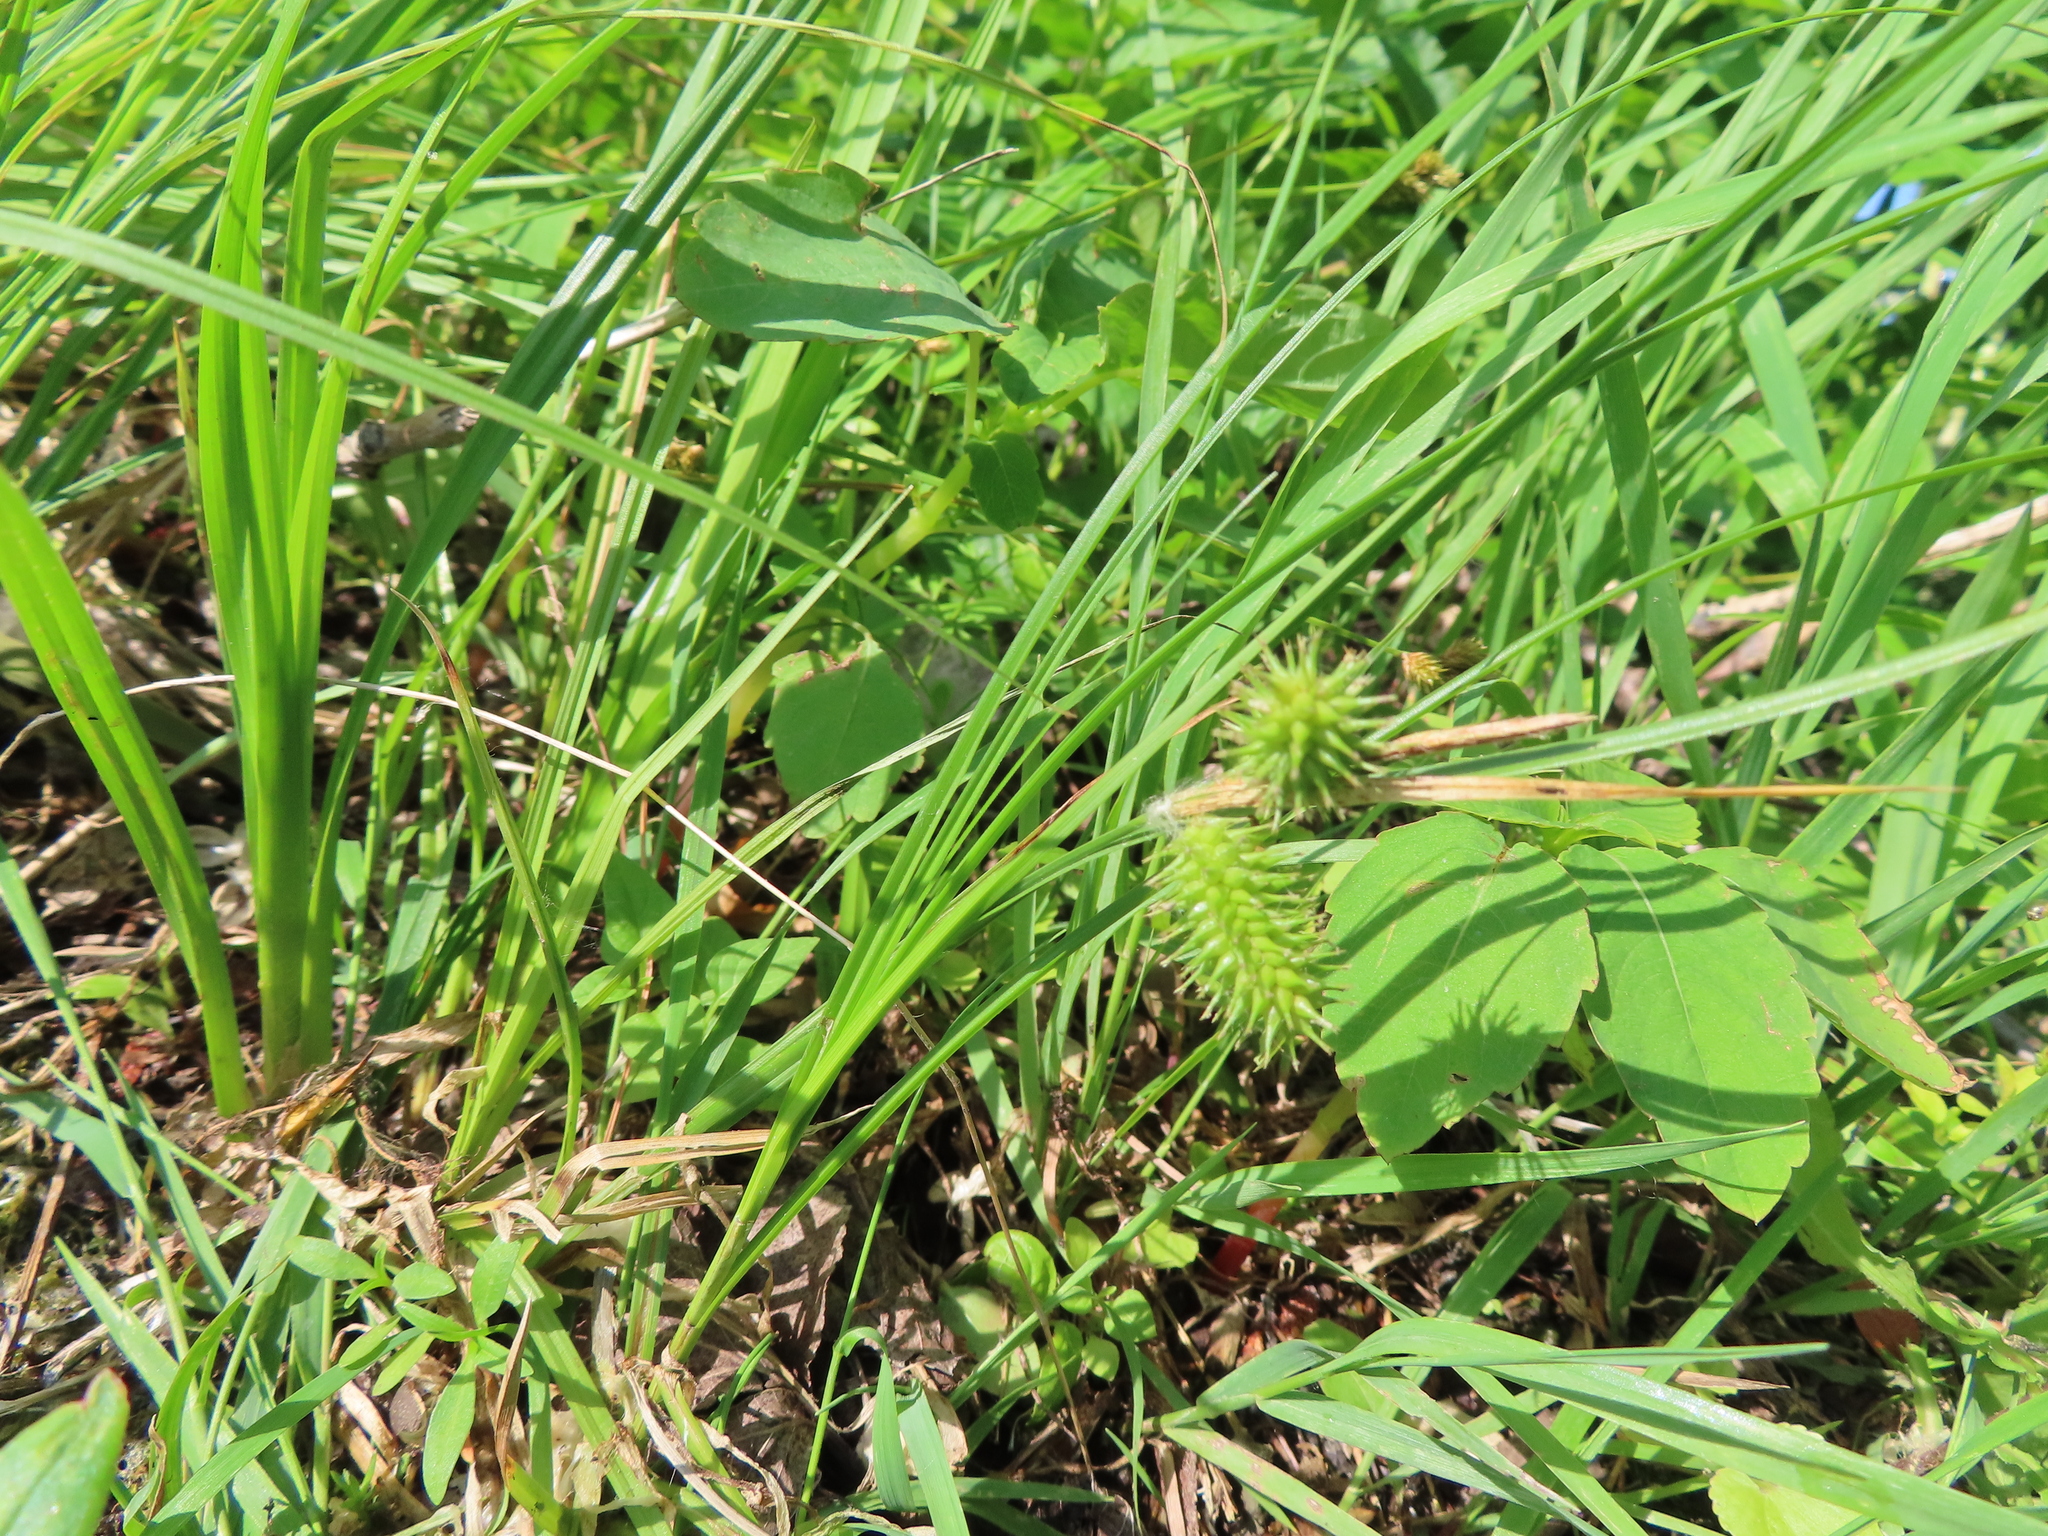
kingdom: Plantae
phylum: Tracheophyta
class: Liliopsida
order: Poales
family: Cyperaceae
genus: Carex
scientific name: Carex hystericina
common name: Bottlebrush sedge
